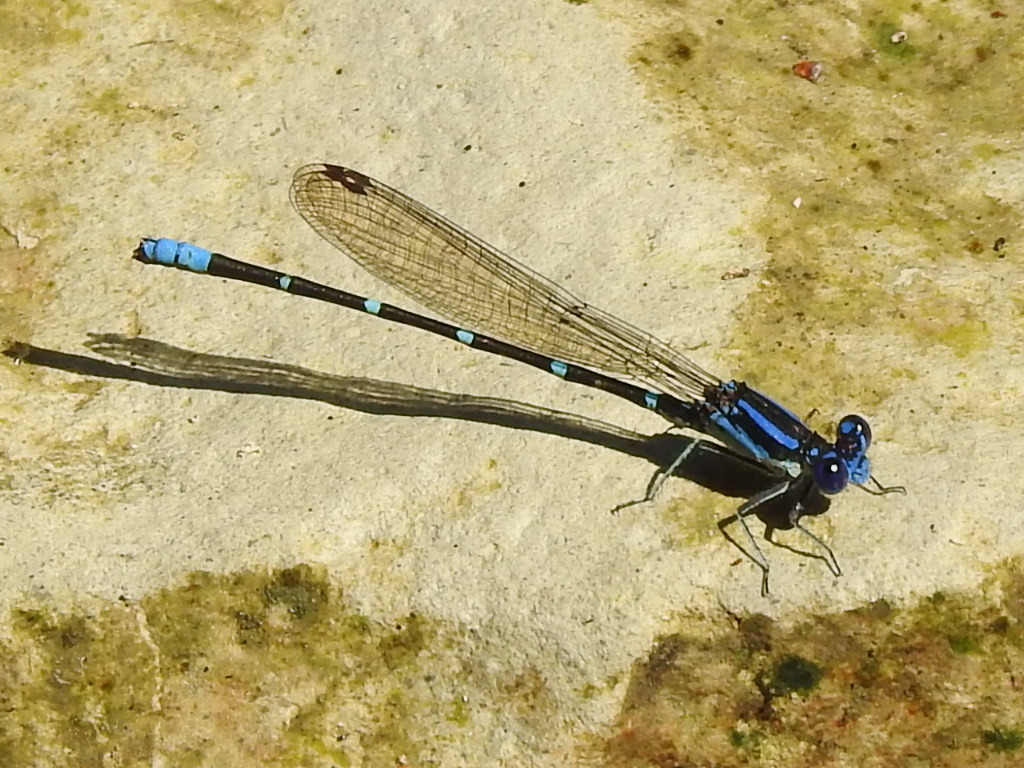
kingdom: Animalia
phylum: Arthropoda
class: Insecta
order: Odonata
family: Coenagrionidae
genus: Argia
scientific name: Argia sedula
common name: Blue-ringed dancer
